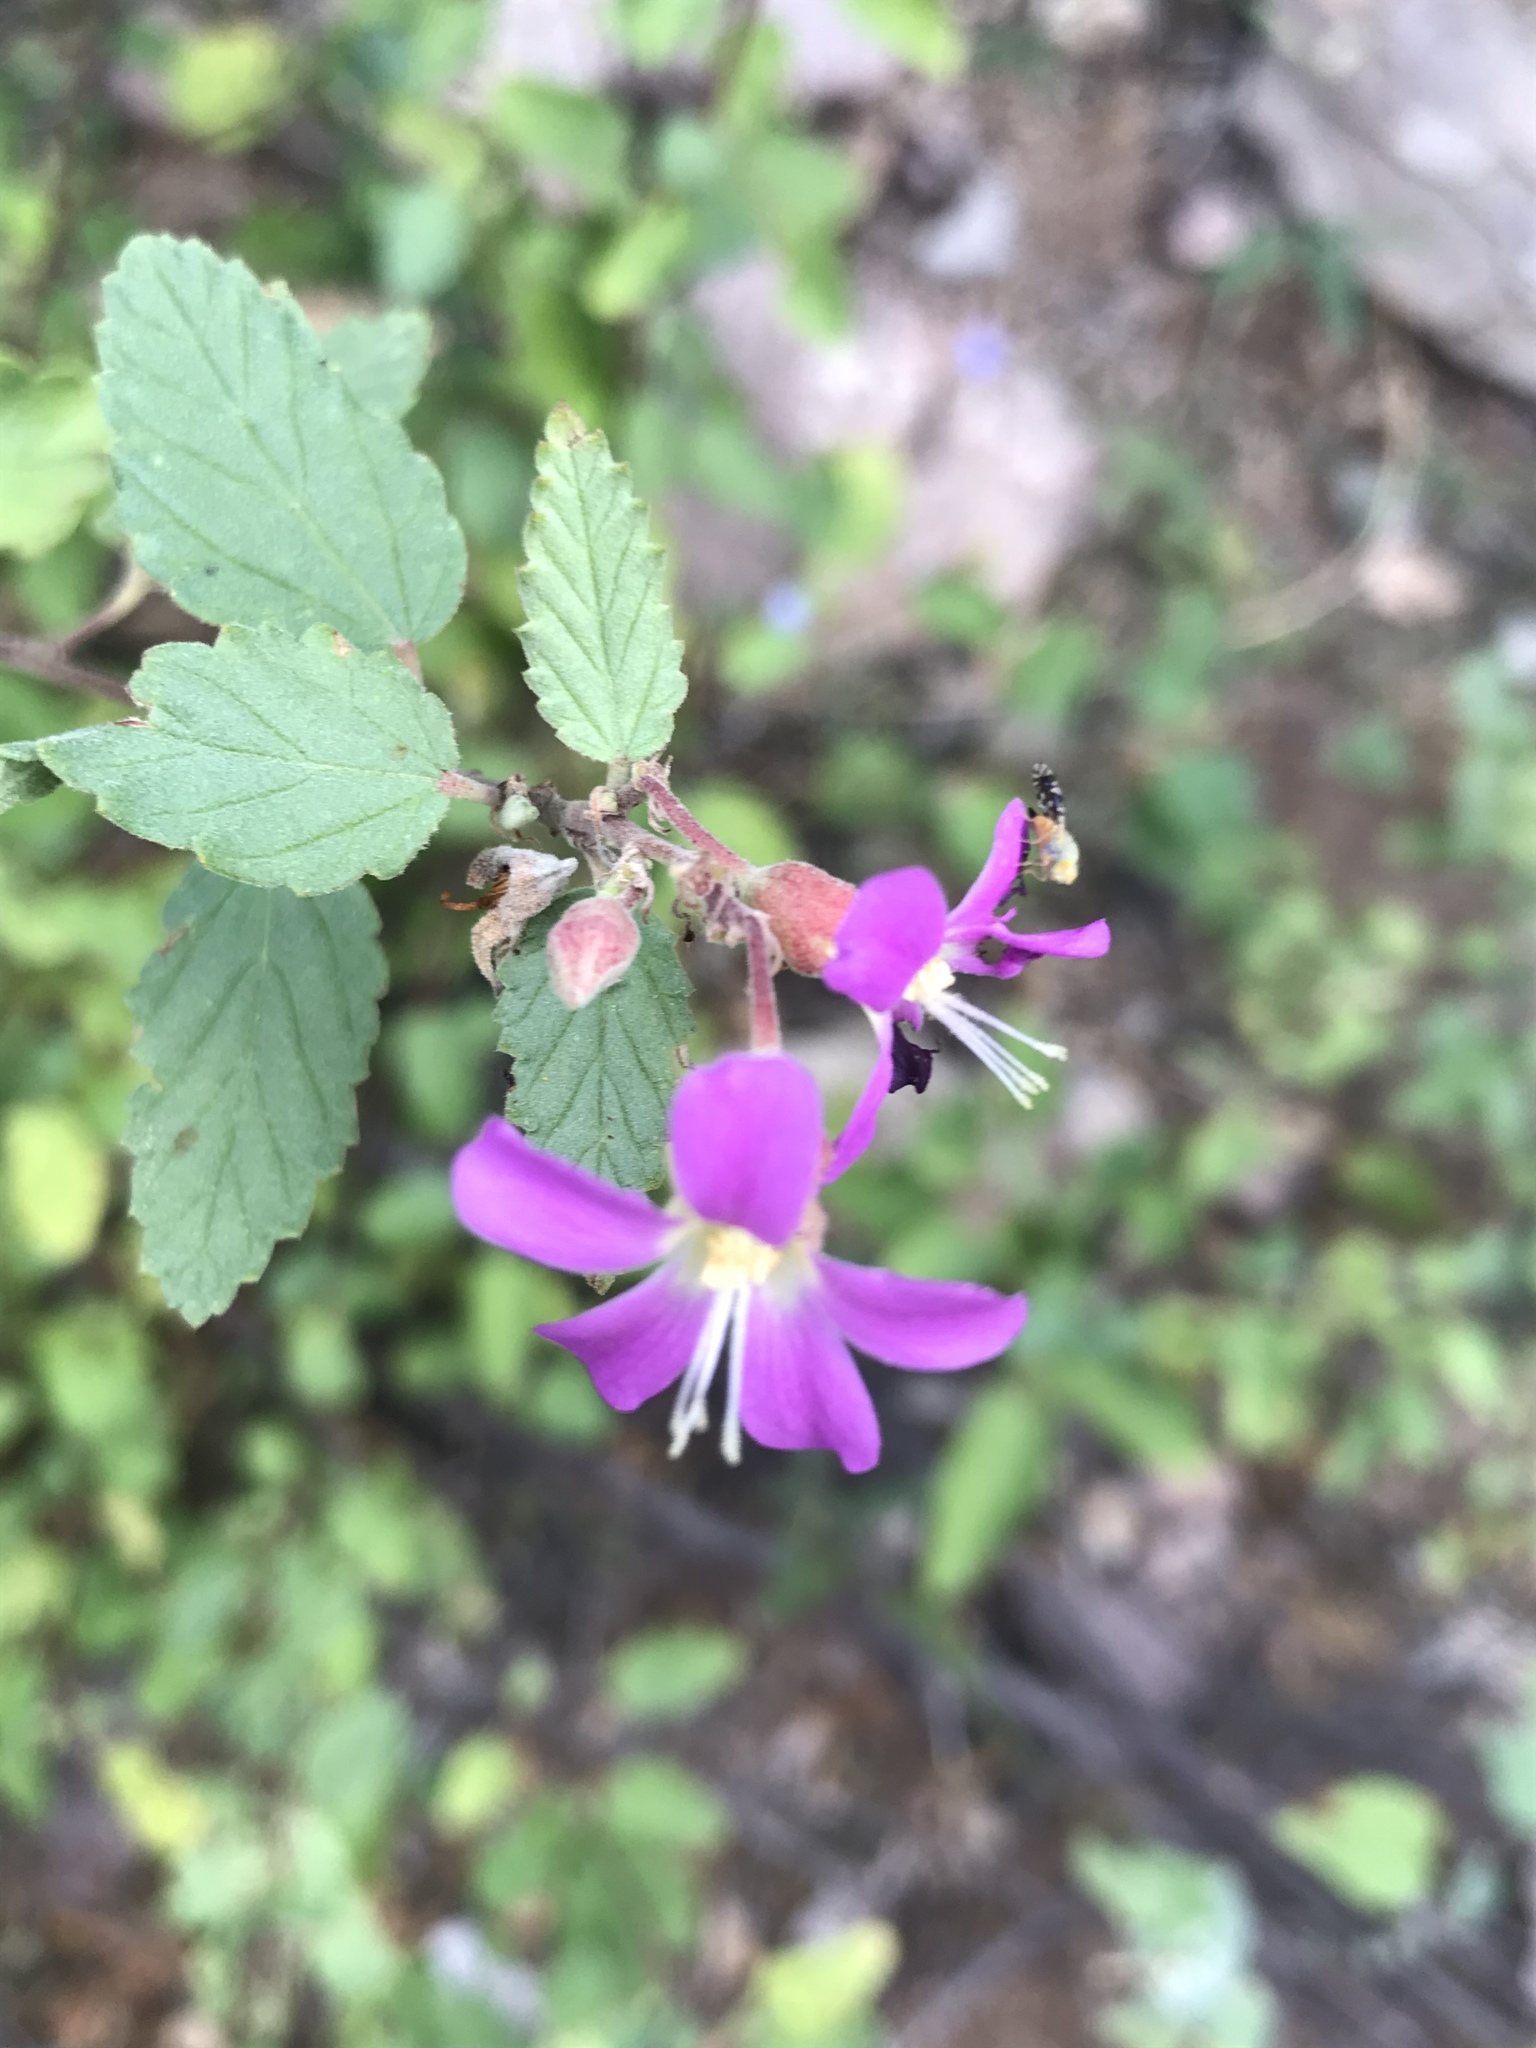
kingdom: Plantae
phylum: Tracheophyta
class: Magnoliopsida
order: Malvales
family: Malvaceae
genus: Melochia
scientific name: Melochia tomentosa
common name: Black torch
